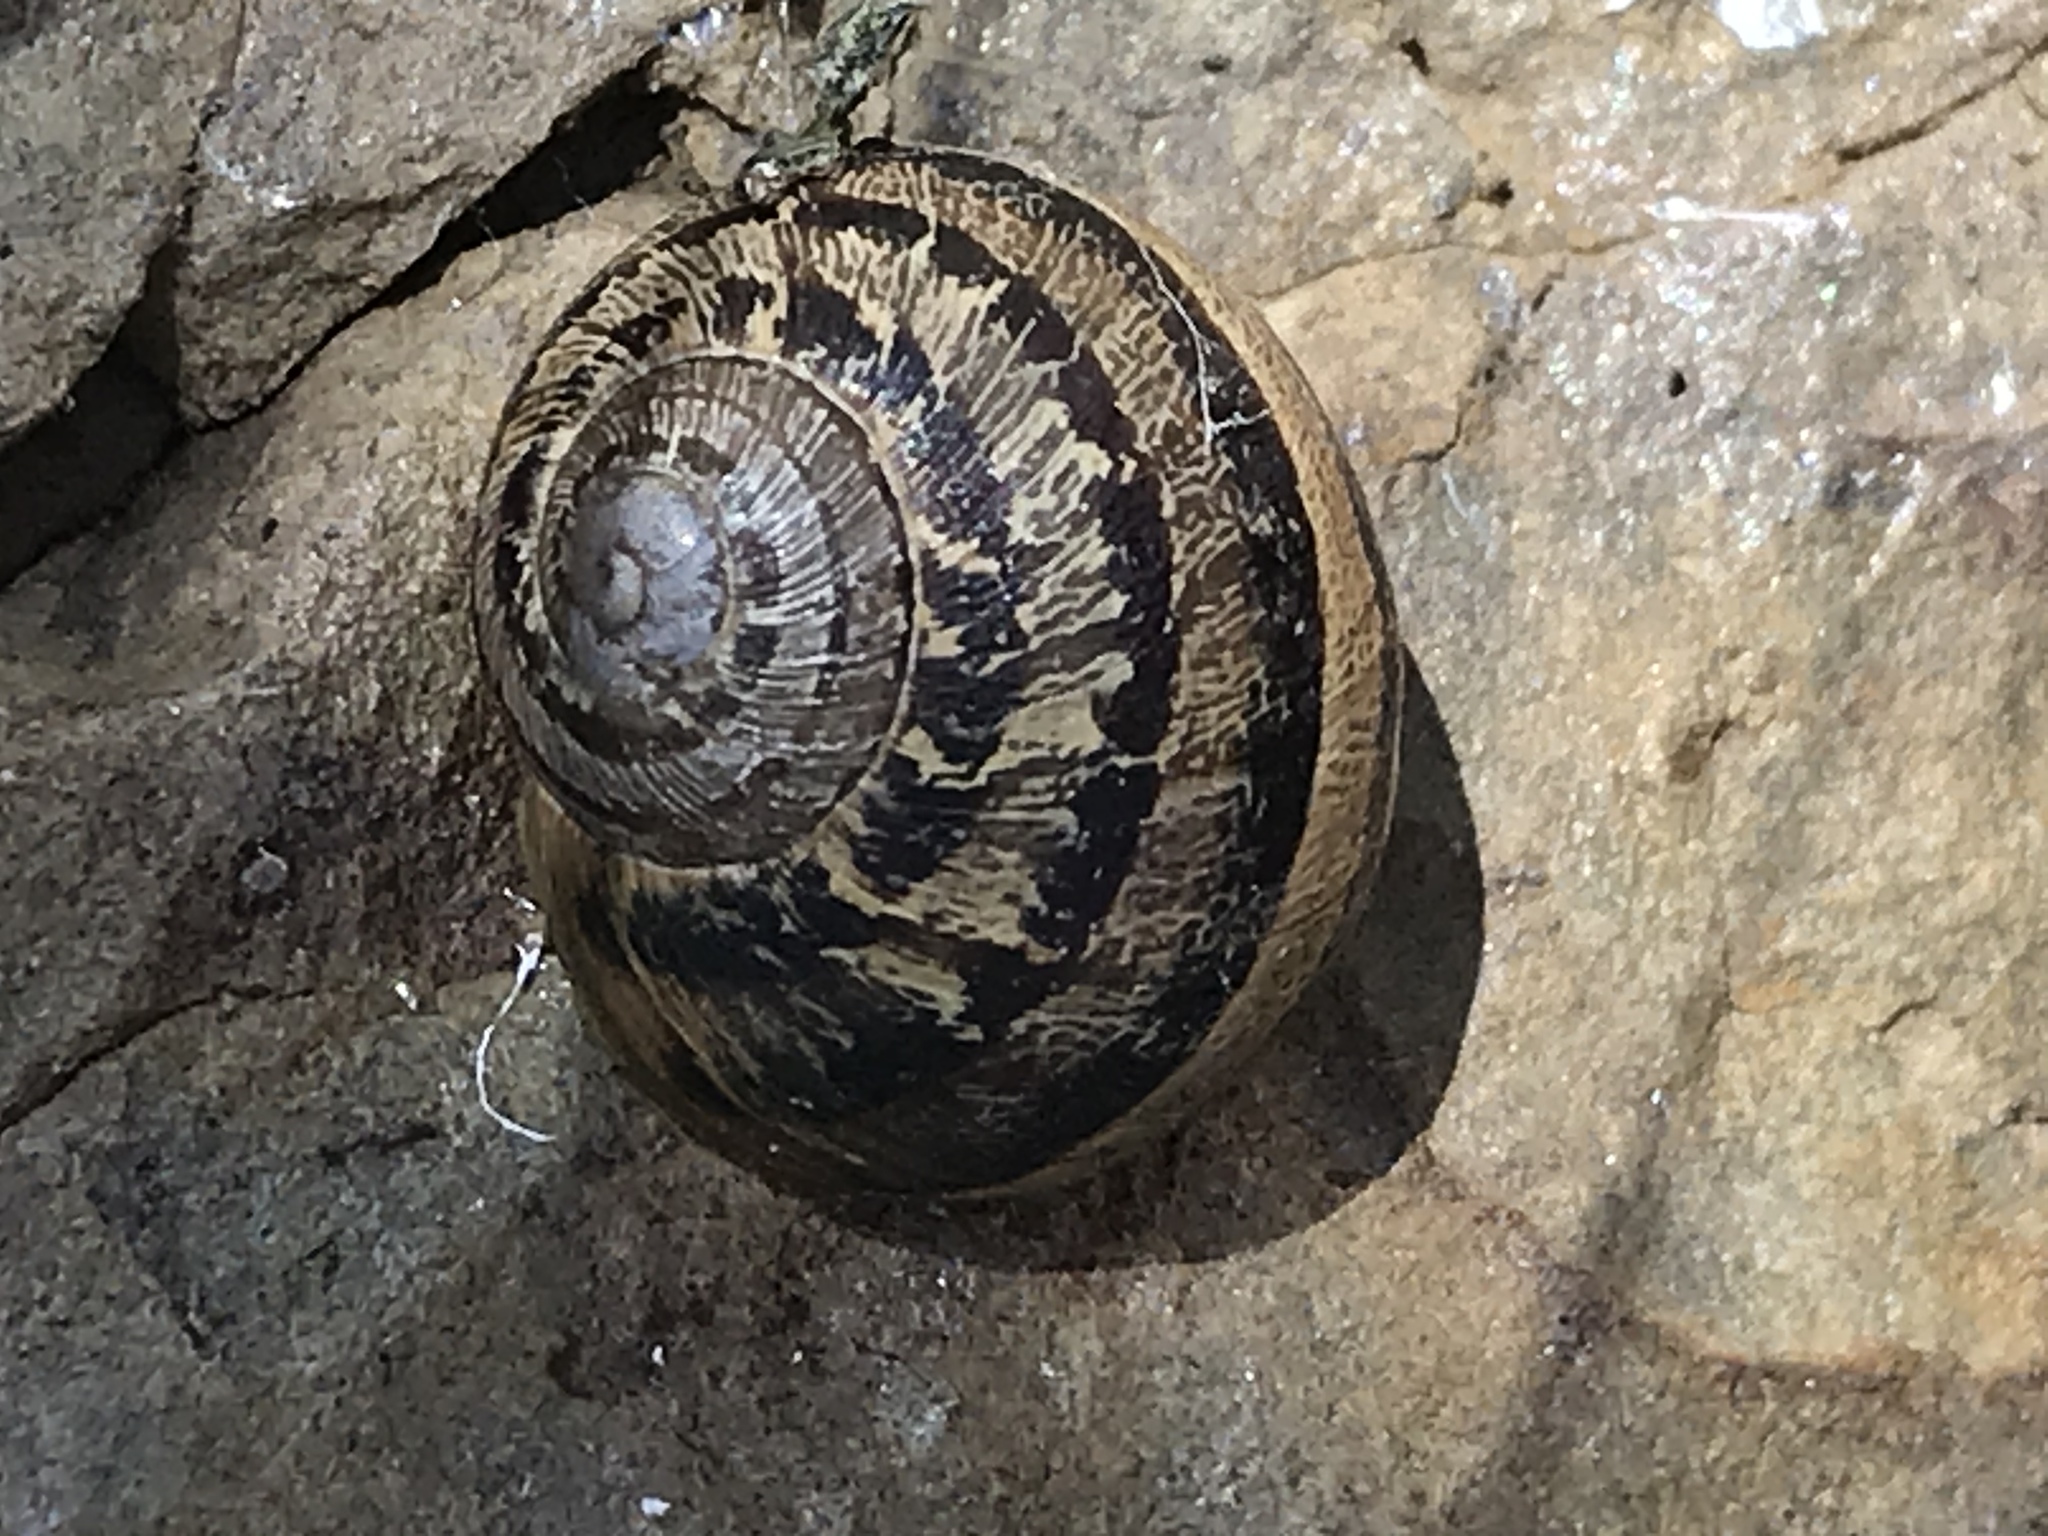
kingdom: Animalia
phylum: Mollusca
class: Gastropoda
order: Stylommatophora
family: Helicidae
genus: Cornu
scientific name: Cornu aspersum
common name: Brown garden snail
